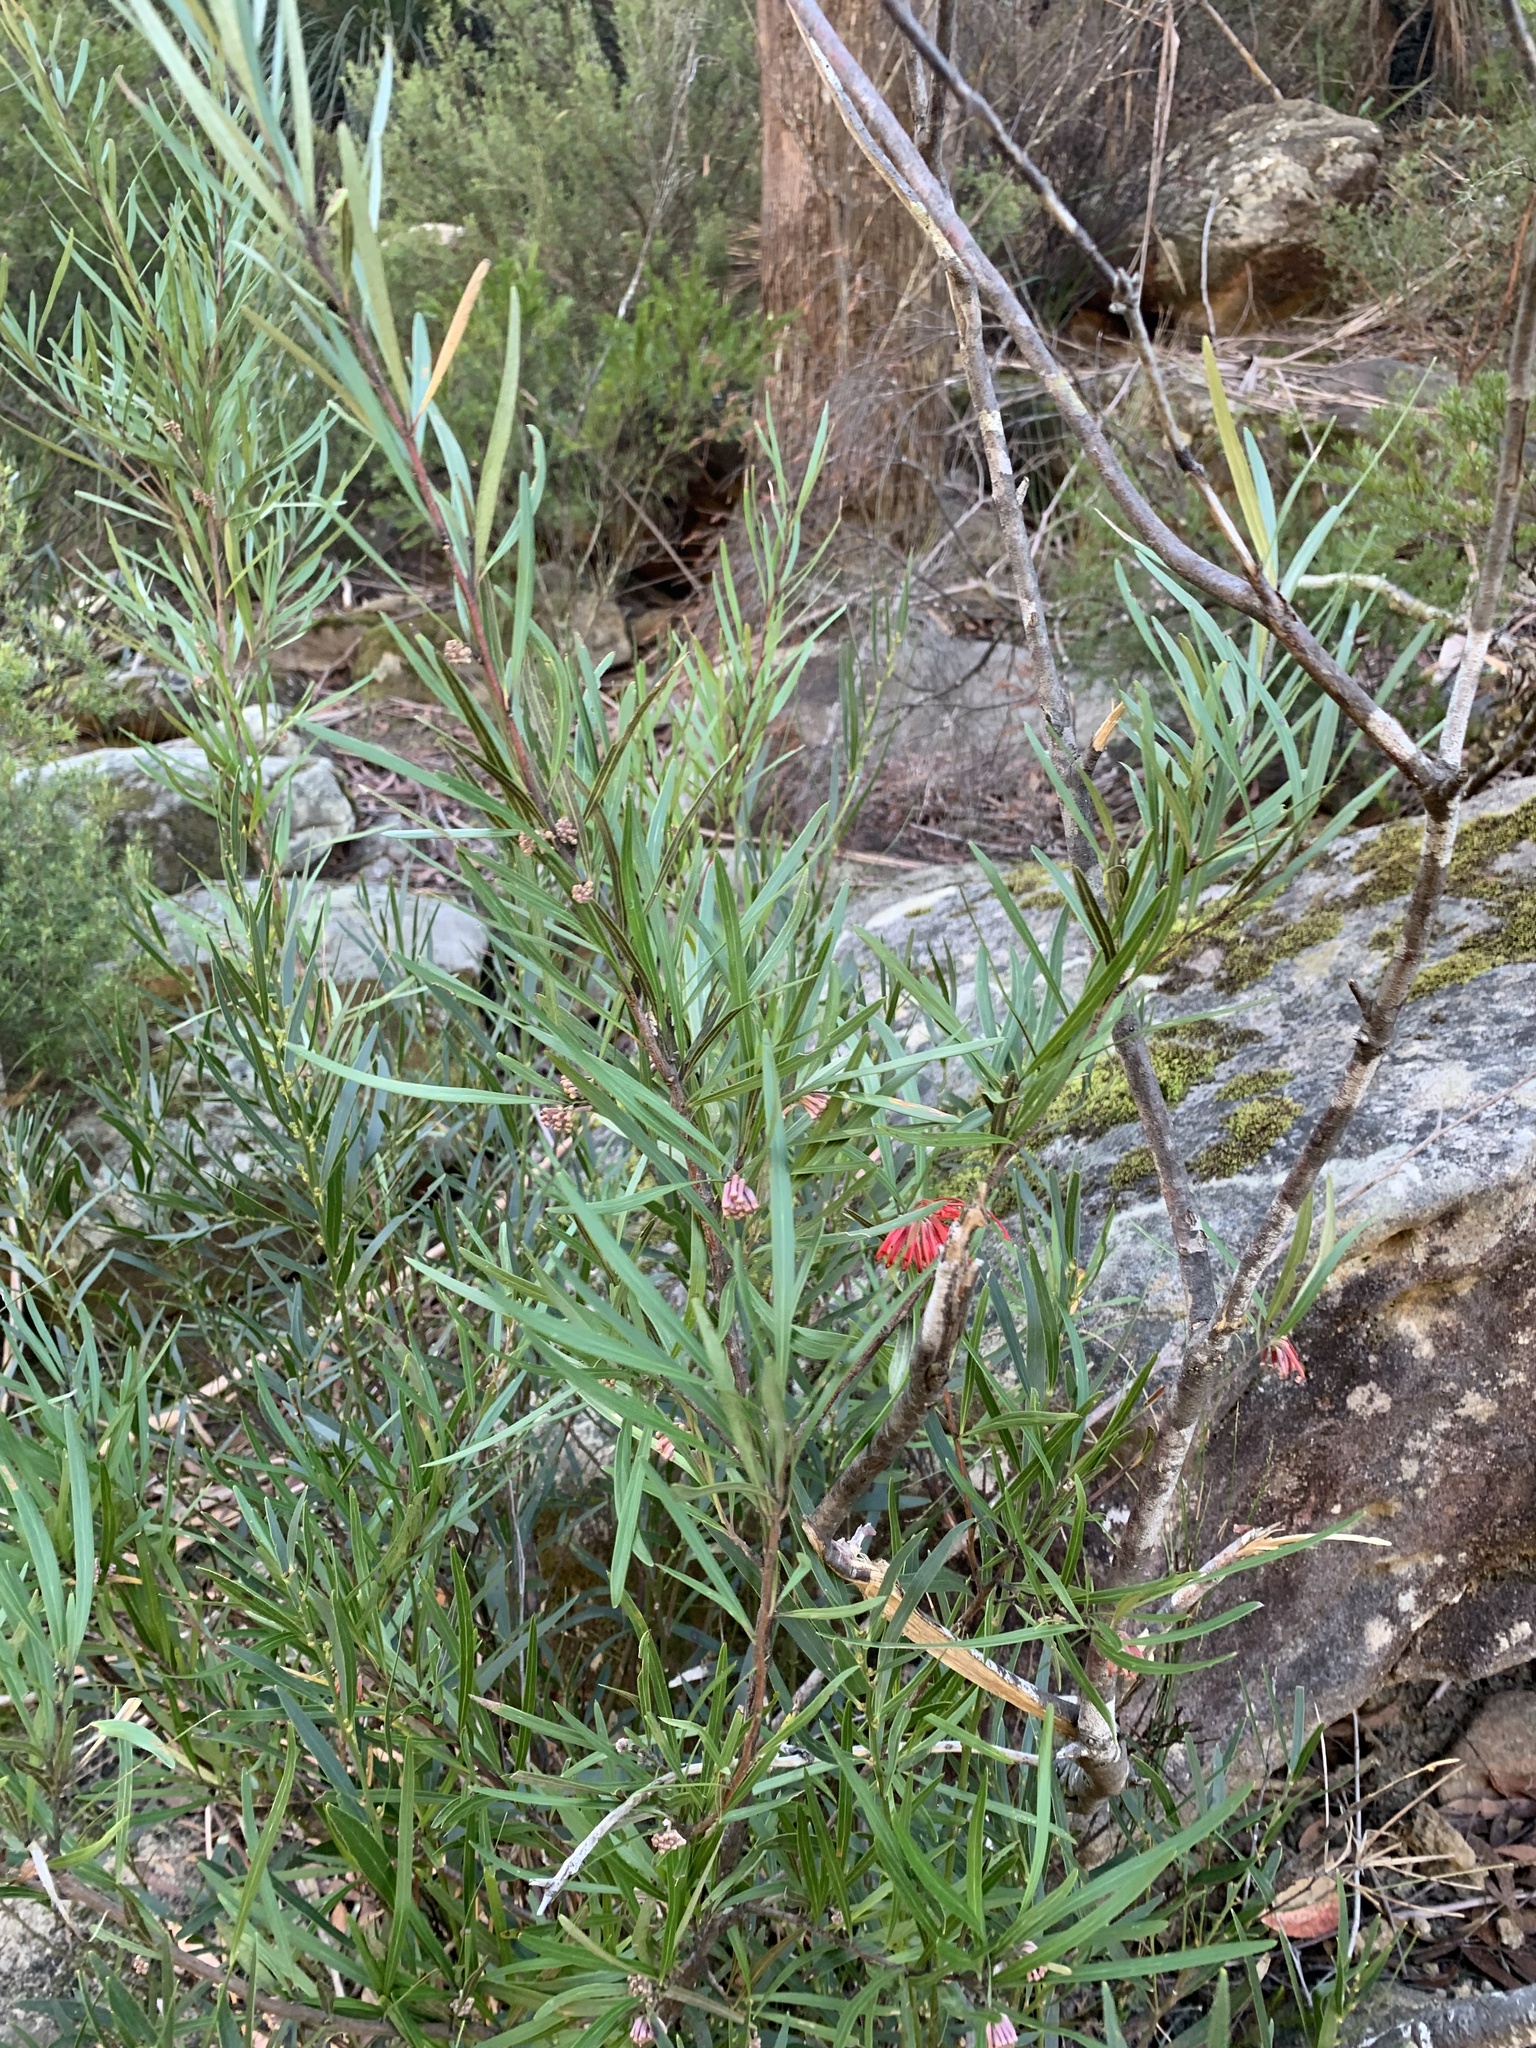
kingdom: Plantae
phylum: Tracheophyta
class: Magnoliopsida
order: Proteales
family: Proteaceae
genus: Grevillea
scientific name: Grevillea oleoides
